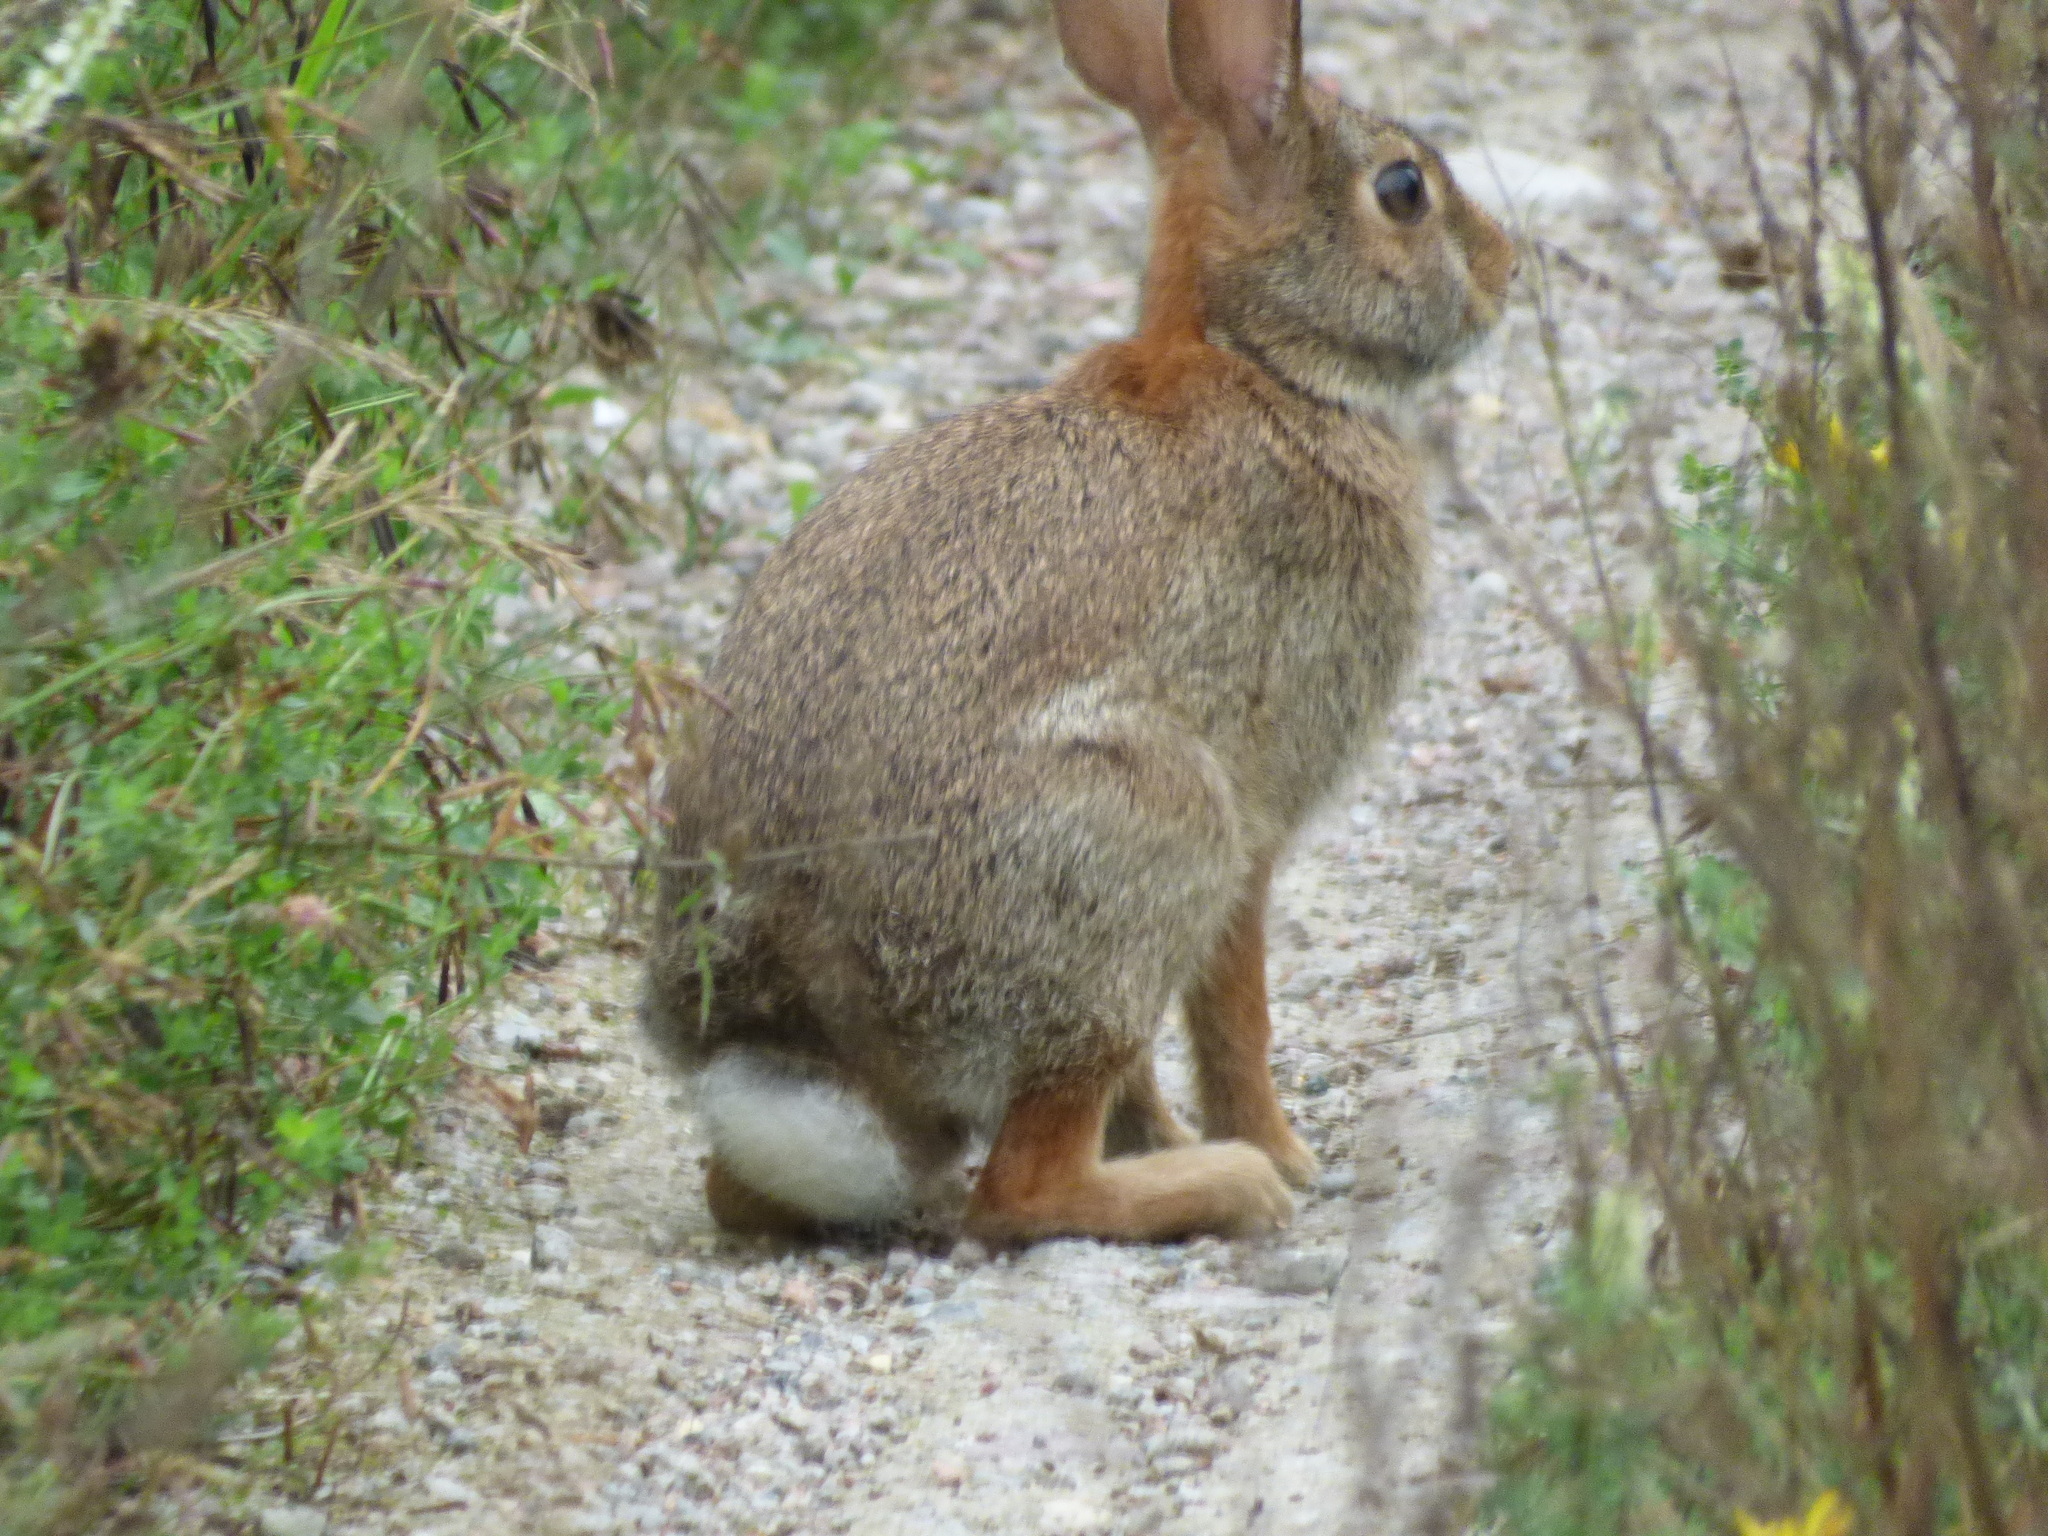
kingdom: Animalia
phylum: Chordata
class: Mammalia
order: Lagomorpha
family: Leporidae
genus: Sylvilagus
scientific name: Sylvilagus floridanus
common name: Eastern cottontail
